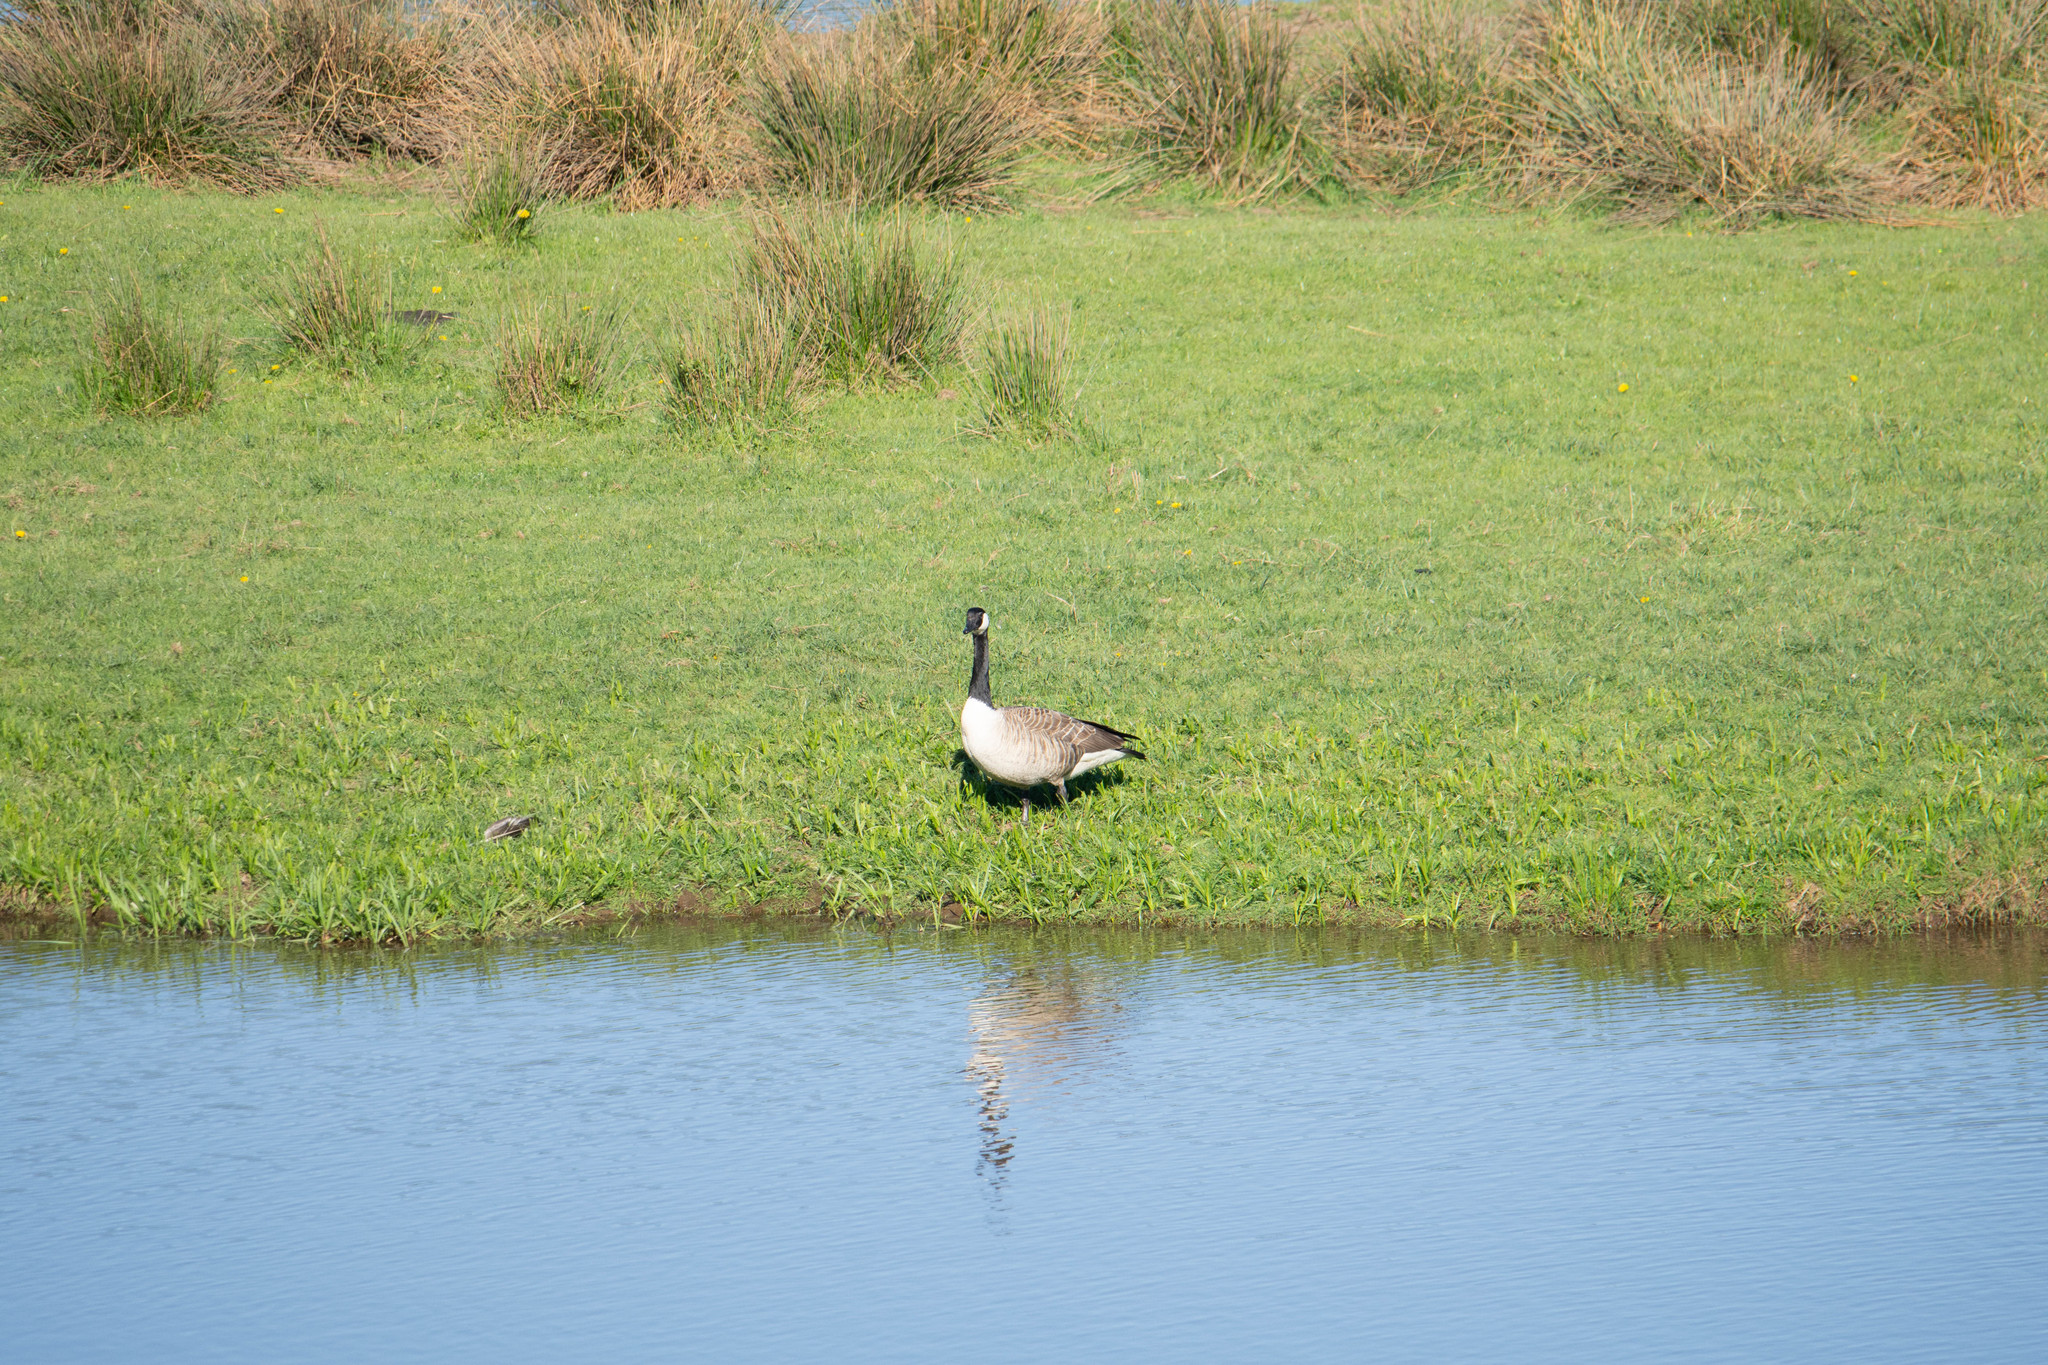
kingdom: Animalia
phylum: Chordata
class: Aves
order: Anseriformes
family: Anatidae
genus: Branta
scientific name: Branta canadensis
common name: Canada goose
